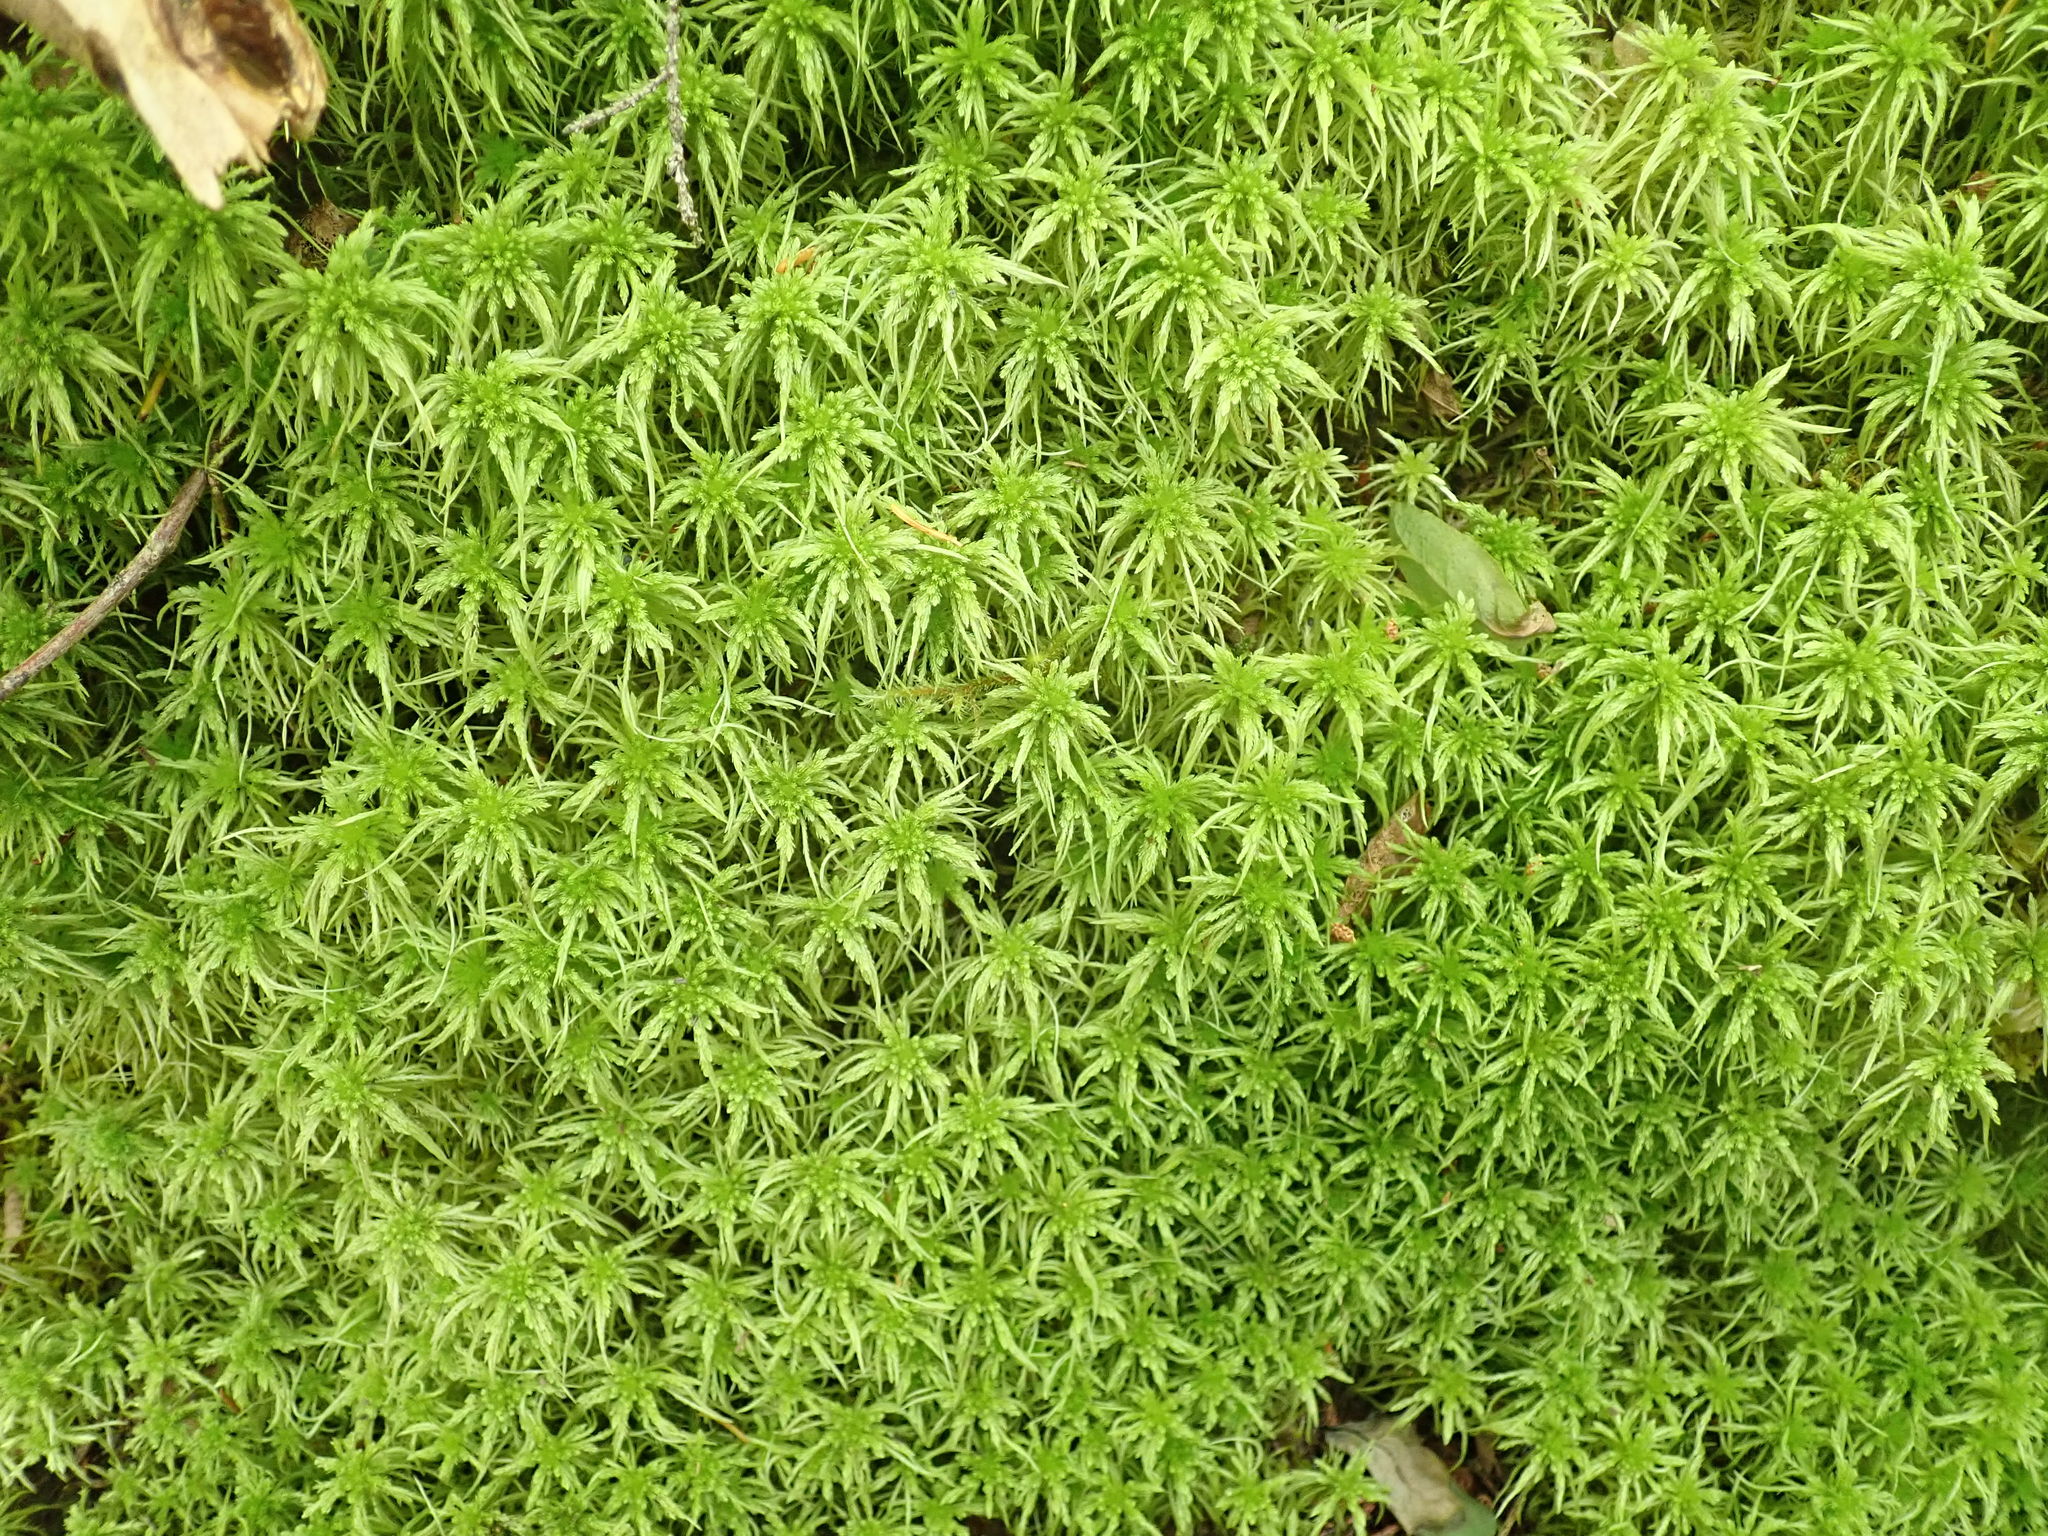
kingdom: Plantae
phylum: Bryophyta
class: Sphagnopsida
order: Sphagnales
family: Sphagnaceae
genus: Sphagnum
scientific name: Sphagnum girgensohnii
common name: Girgensohn's peat moss
